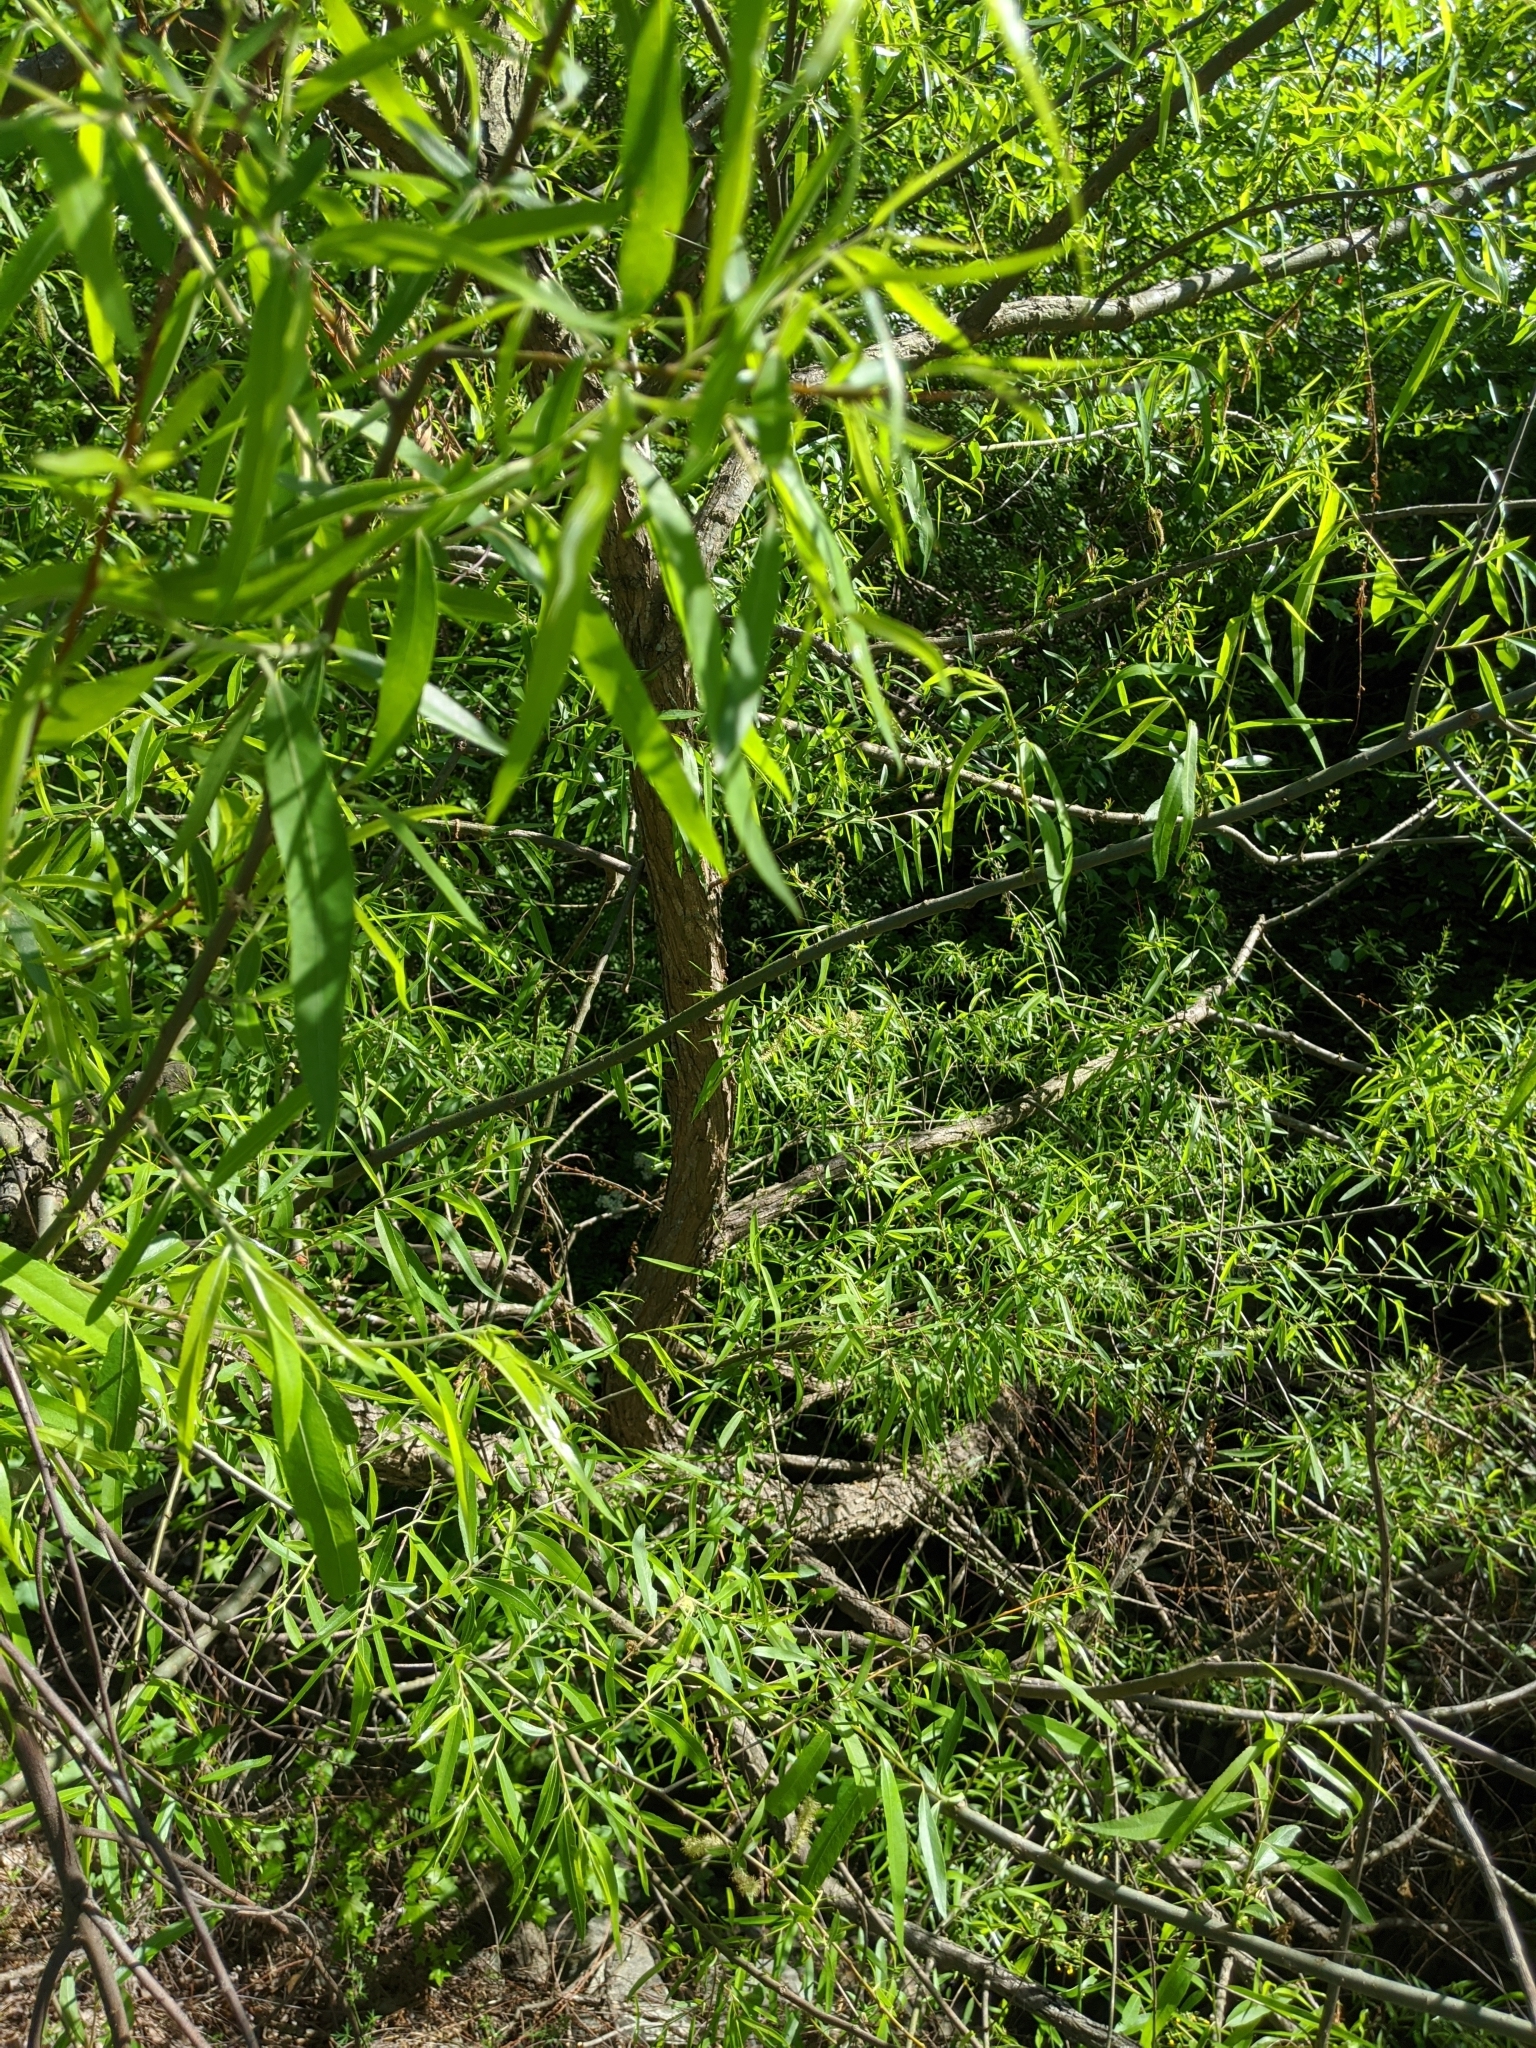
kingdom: Plantae
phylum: Tracheophyta
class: Magnoliopsida
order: Malpighiales
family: Salicaceae
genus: Salix
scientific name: Salix nigra
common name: Black willow
